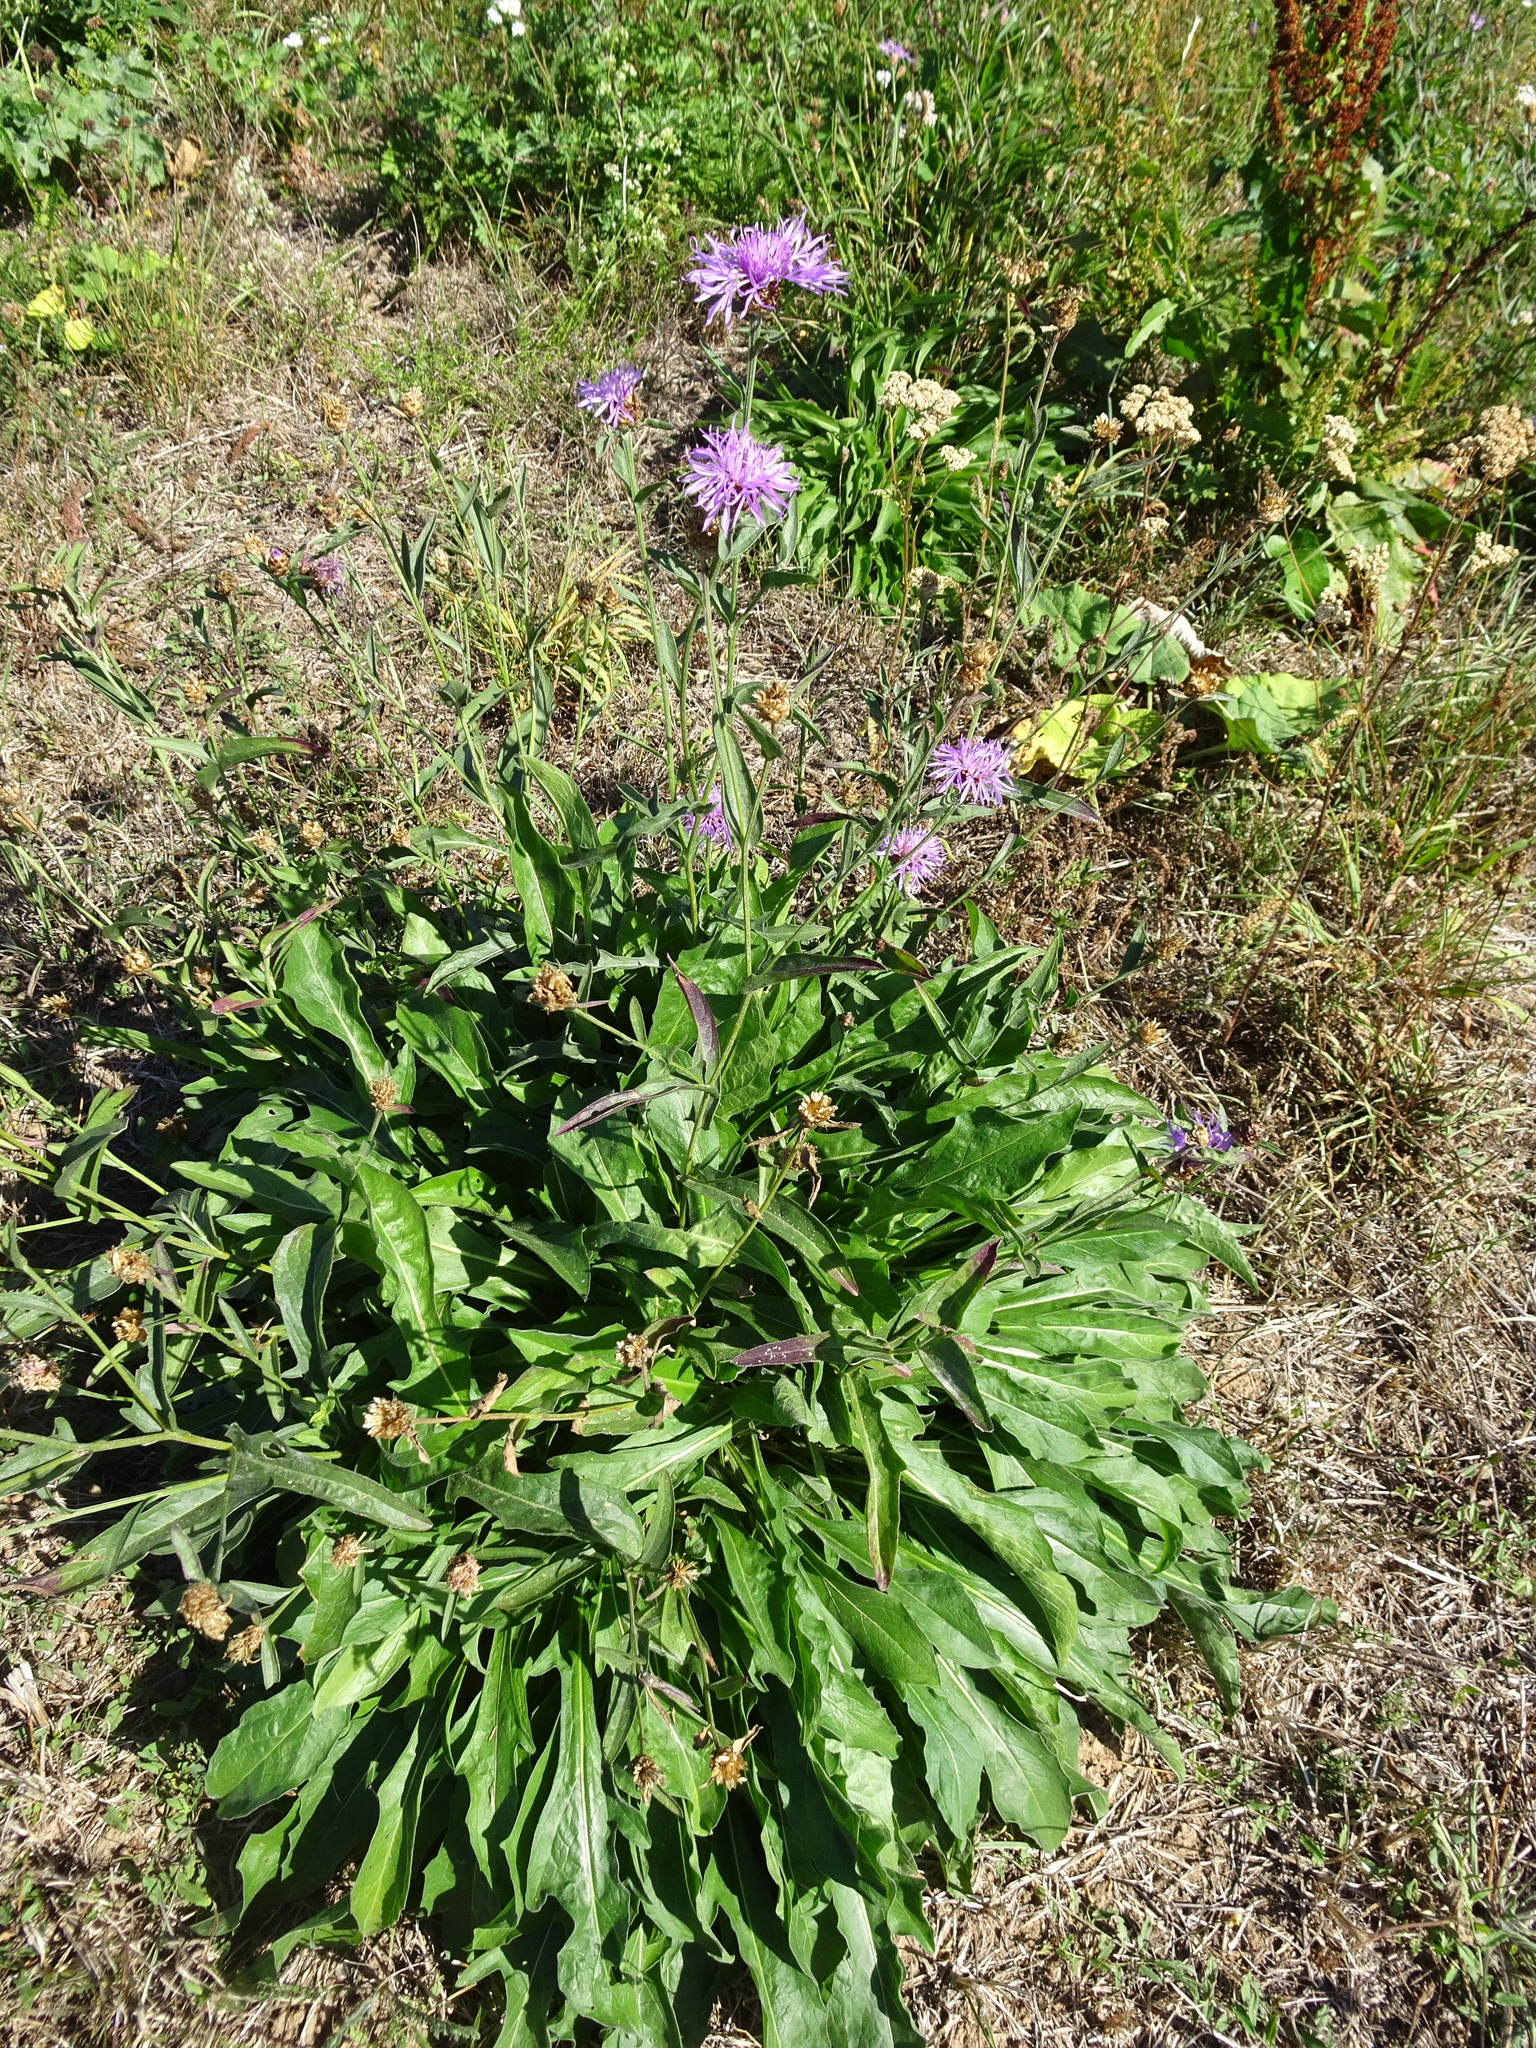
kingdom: Plantae
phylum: Tracheophyta
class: Magnoliopsida
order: Asterales
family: Asteraceae
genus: Centaurea
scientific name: Centaurea jacea
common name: Brown knapweed
